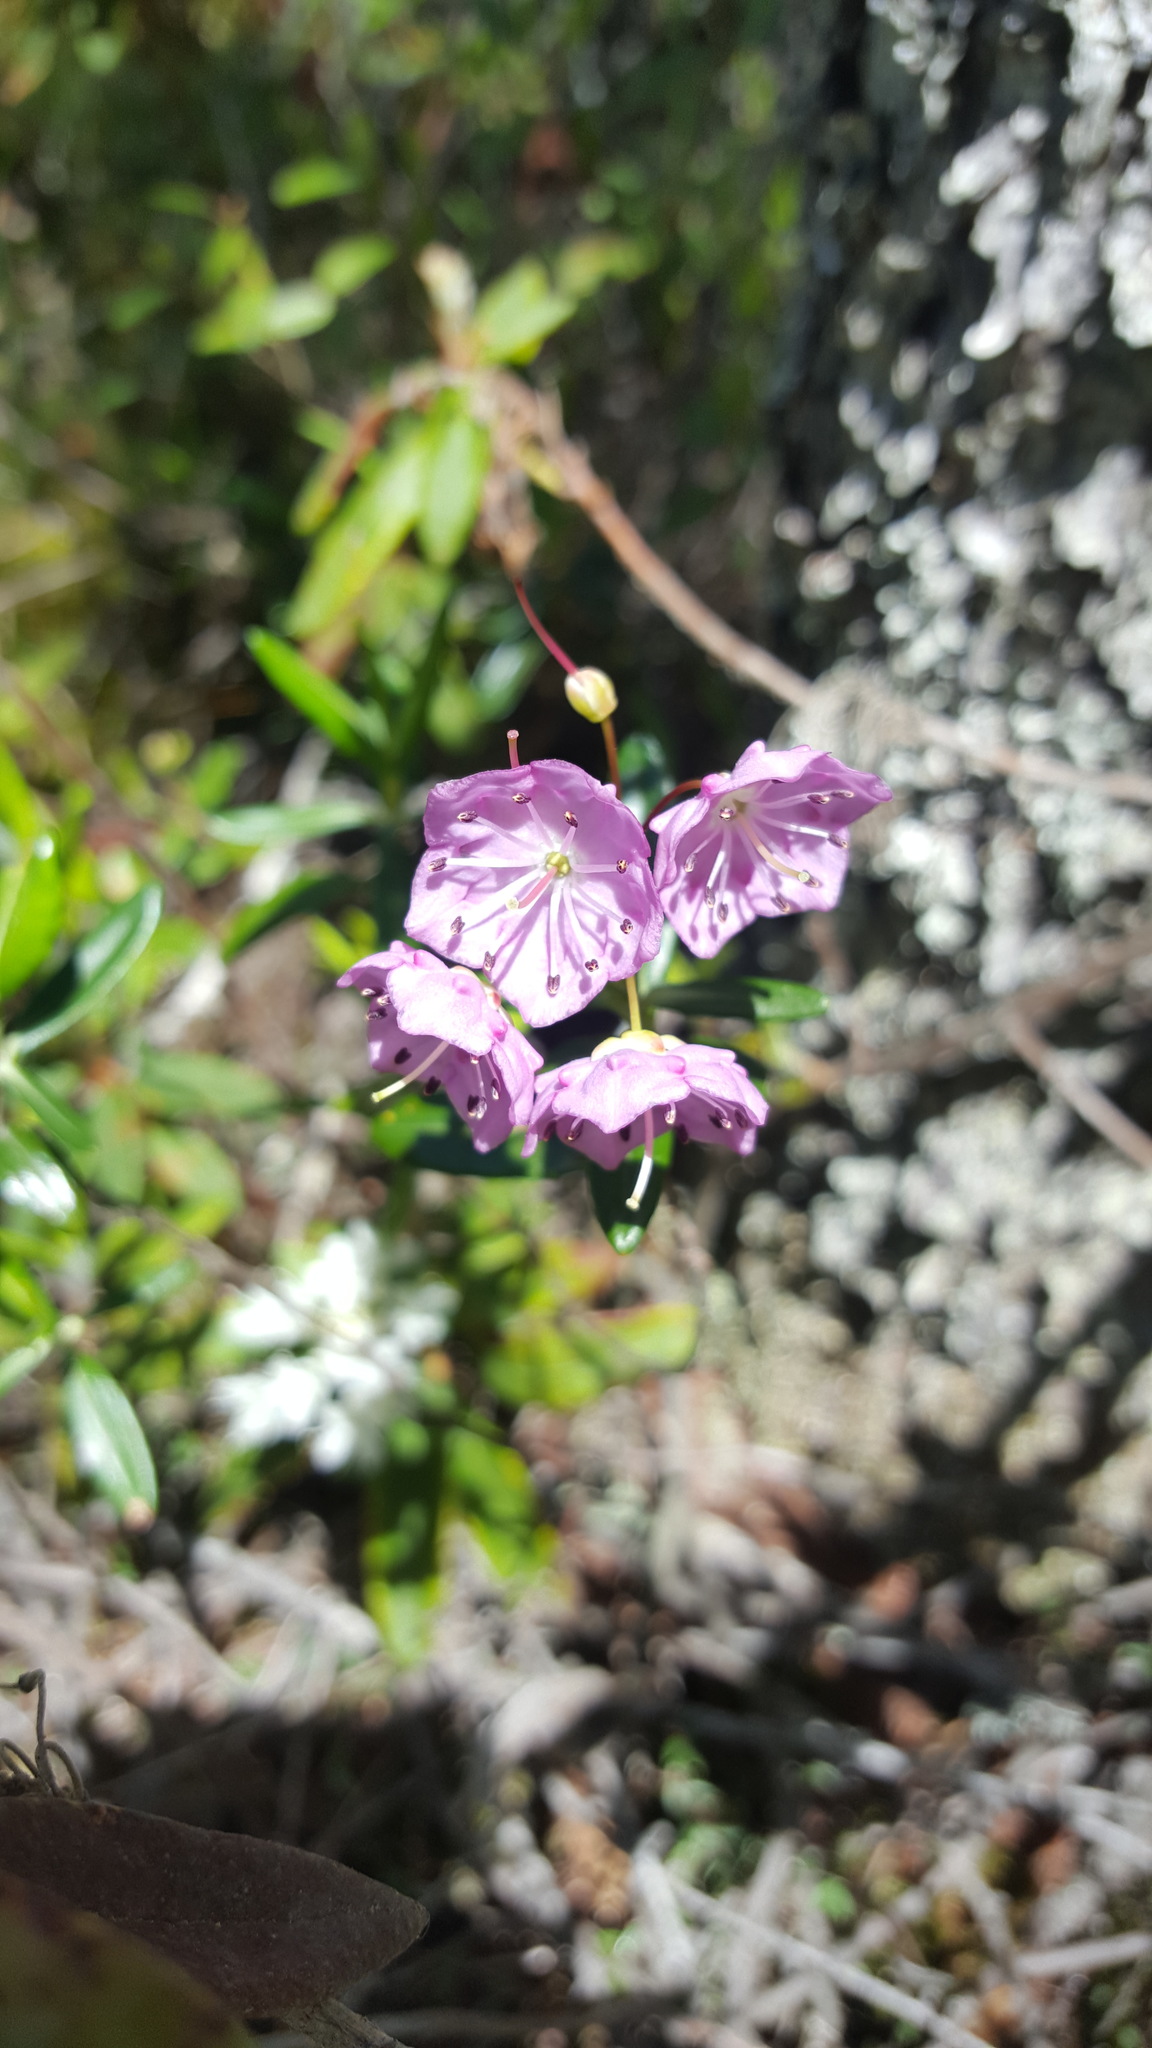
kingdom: Plantae
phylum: Tracheophyta
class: Magnoliopsida
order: Ericales
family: Ericaceae
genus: Kalmia
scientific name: Kalmia polifolia
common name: Bog-laurel
